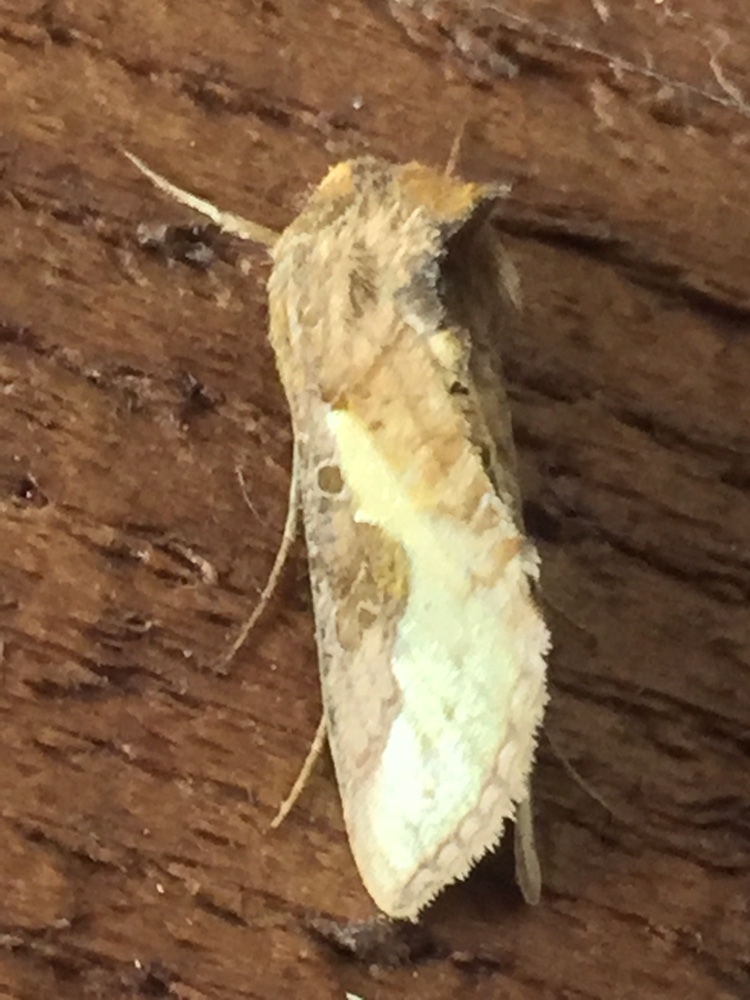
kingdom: Animalia
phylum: Arthropoda
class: Insecta
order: Lepidoptera
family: Noctuidae
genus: Thysanoplusia
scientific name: Thysanoplusia orichalcea
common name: Slender burnished brass, golden plusia
